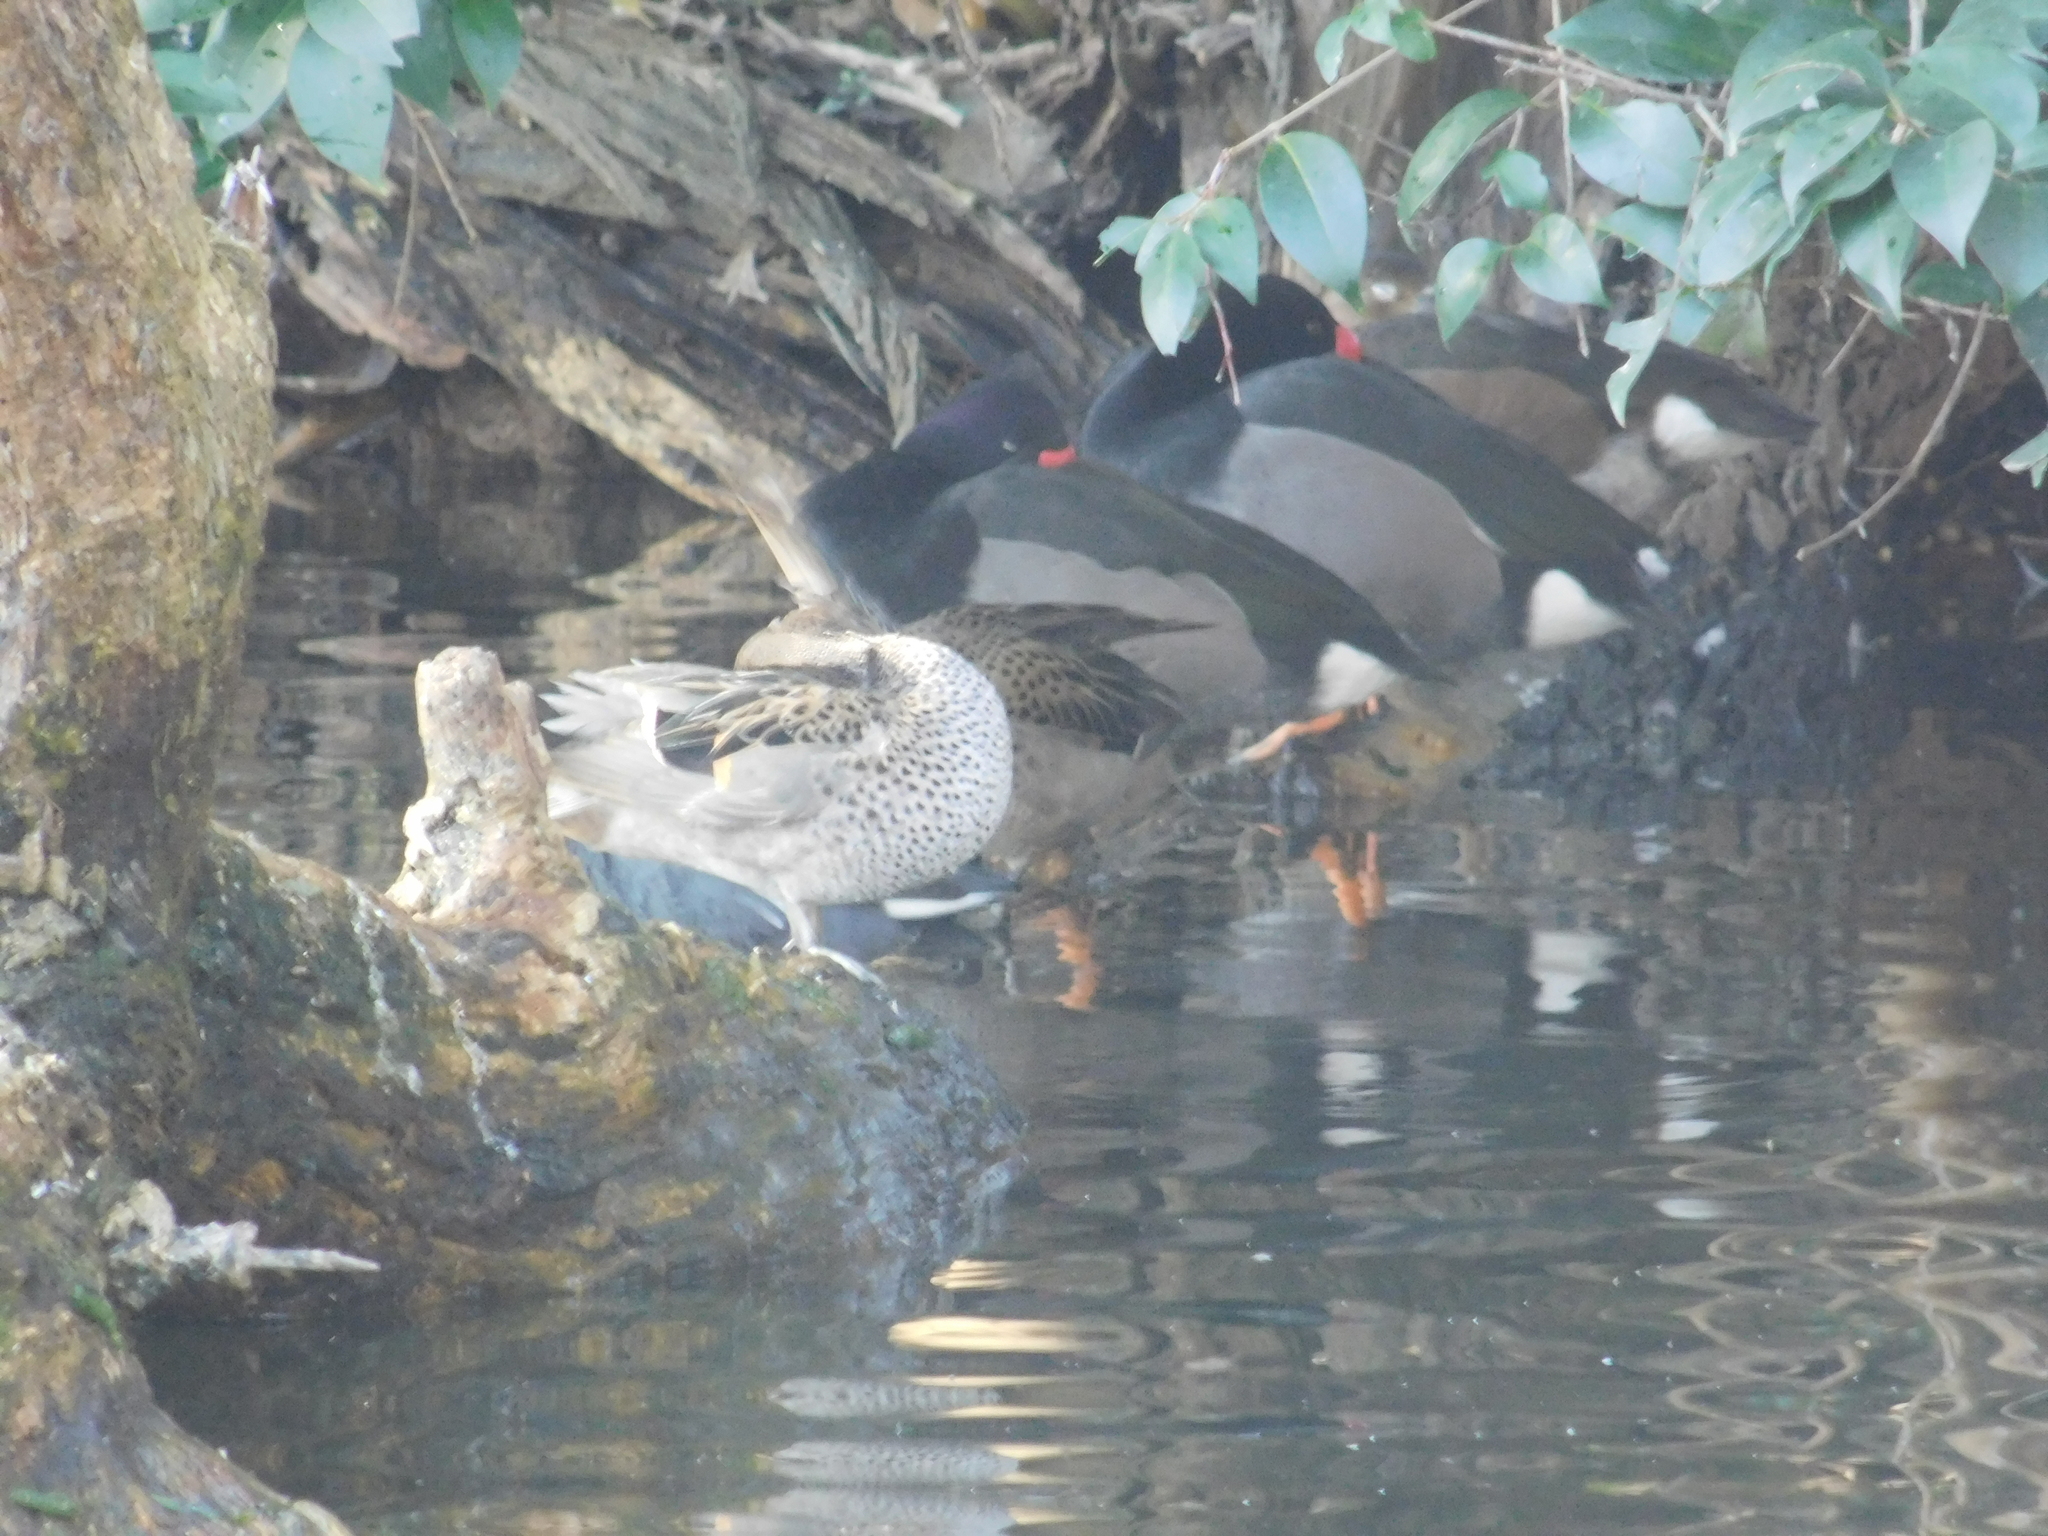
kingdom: Animalia
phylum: Chordata
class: Aves
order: Anseriformes
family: Anatidae
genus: Anas
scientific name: Anas flavirostris
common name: Yellow-billed teal
